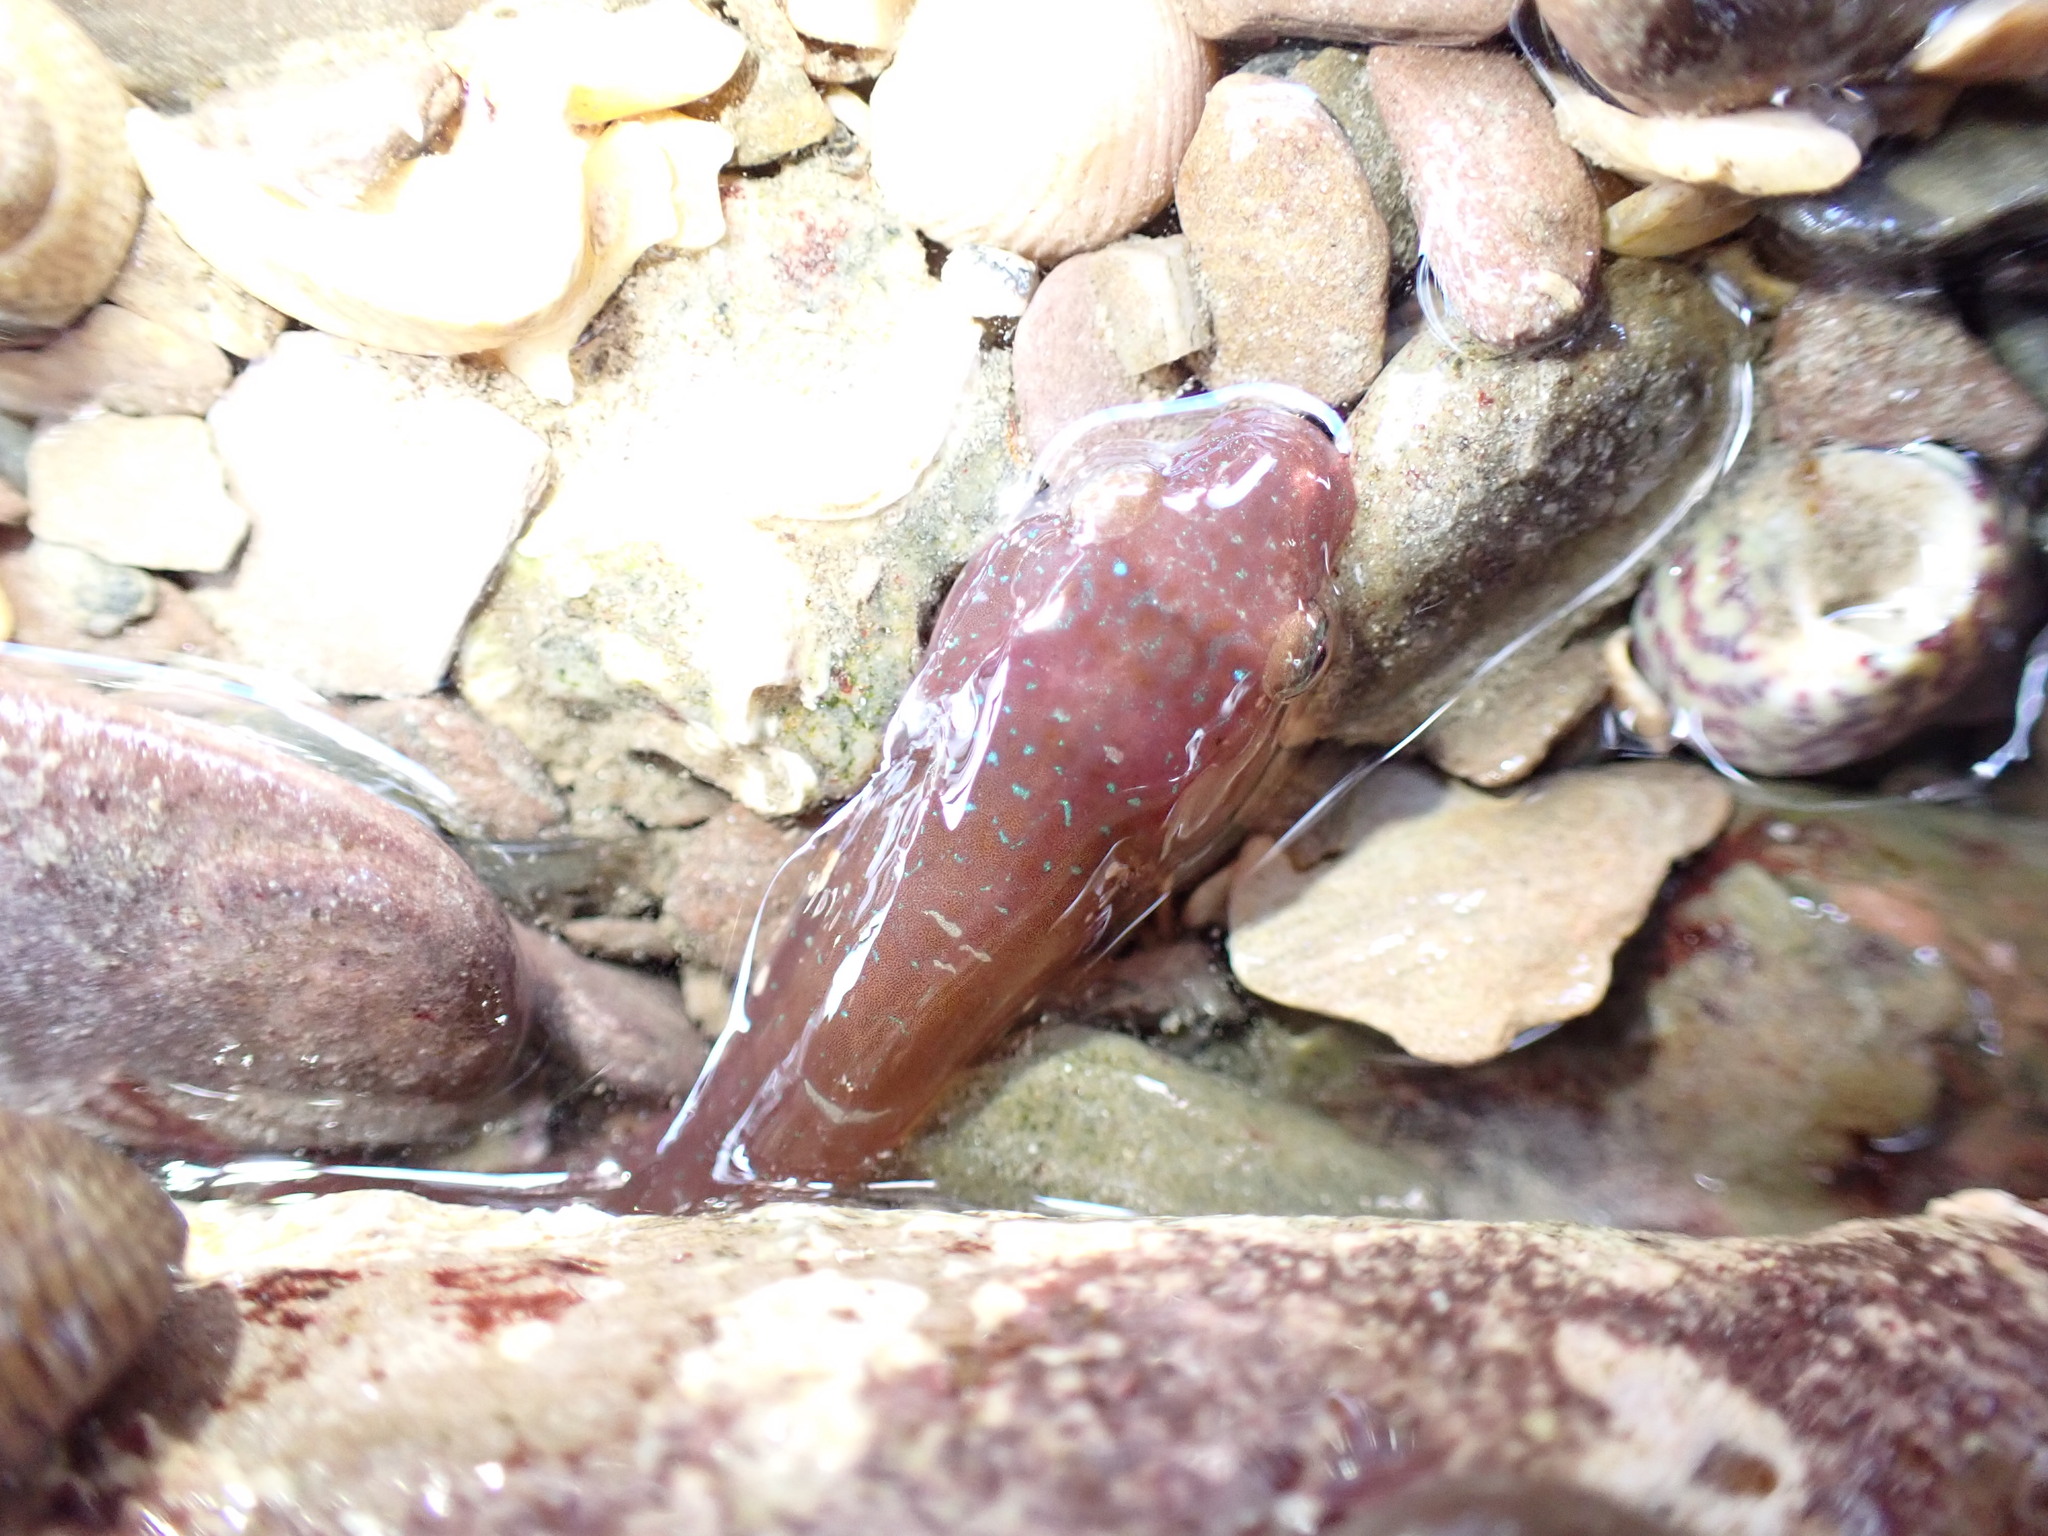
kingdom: Animalia
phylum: Chordata
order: Gobiesociformes
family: Gobiesocidae
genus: Lepadogaster
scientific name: Lepadogaster candolii
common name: Connemarra clingfish
